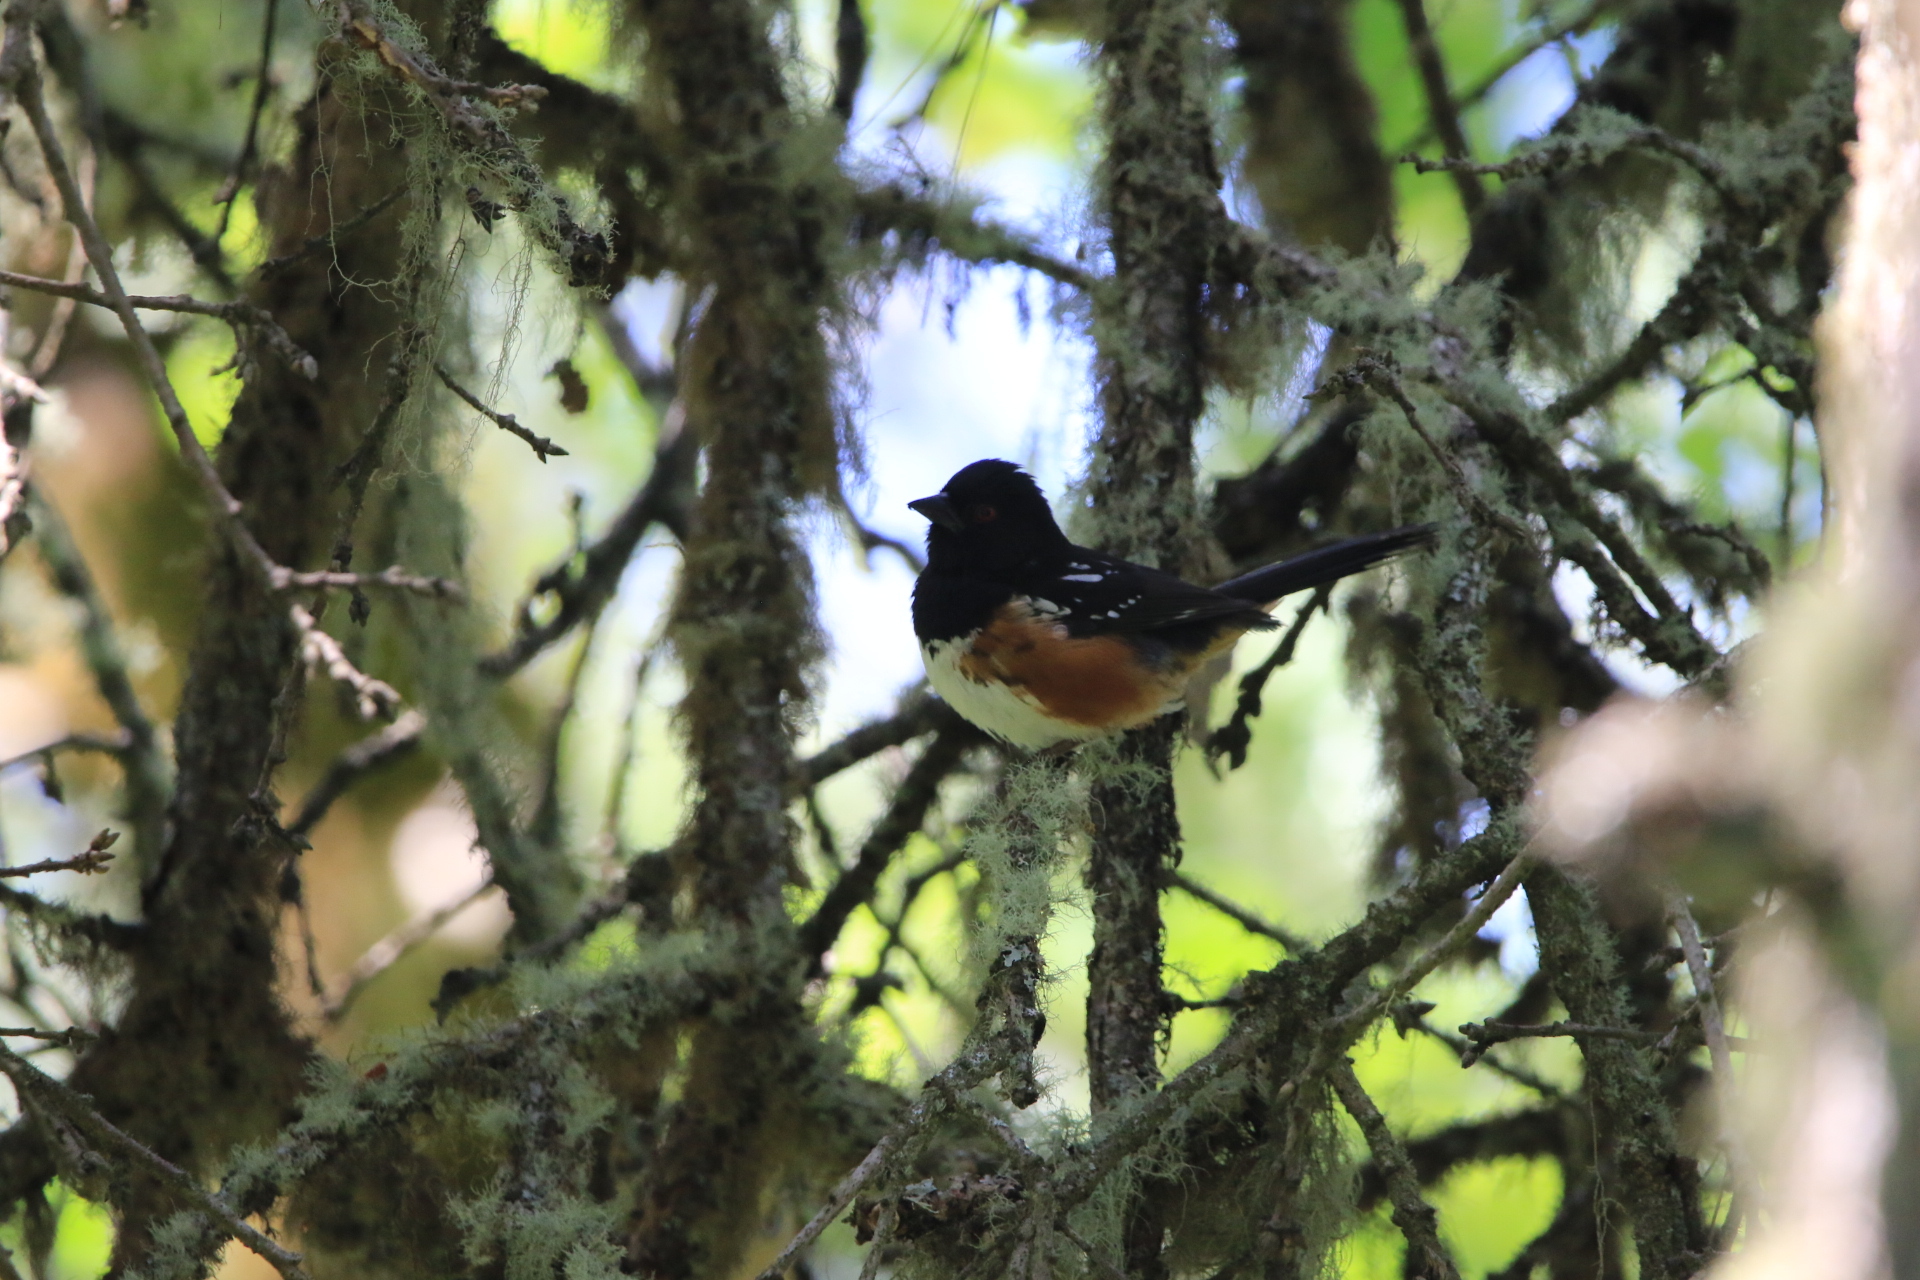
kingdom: Animalia
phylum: Chordata
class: Aves
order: Passeriformes
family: Passerellidae
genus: Pipilo
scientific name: Pipilo maculatus
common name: Spotted towhee
